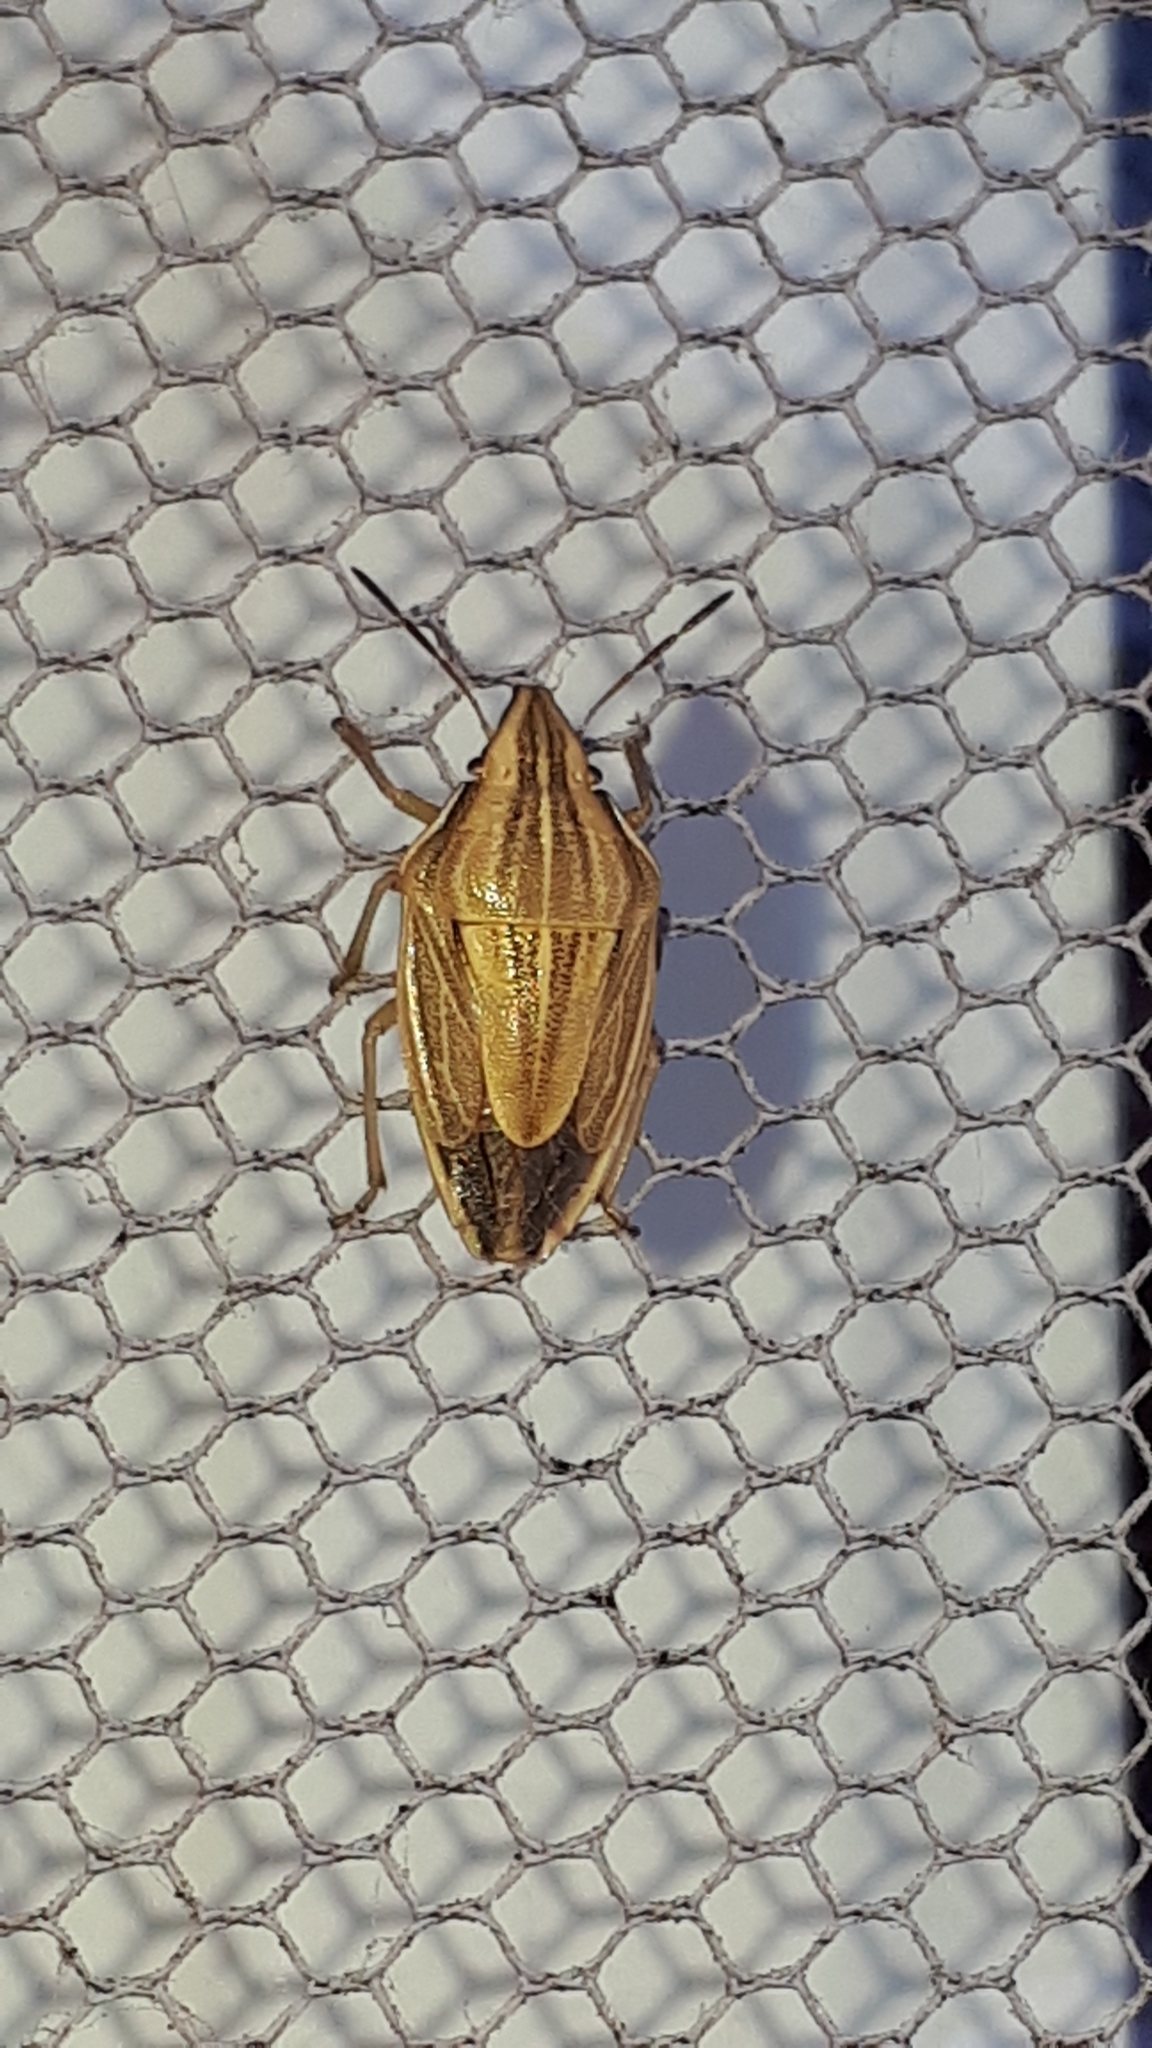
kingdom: Animalia
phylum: Arthropoda
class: Insecta
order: Hemiptera
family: Pentatomidae
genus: Aelia
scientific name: Aelia acuminata
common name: Bishop's mitre
